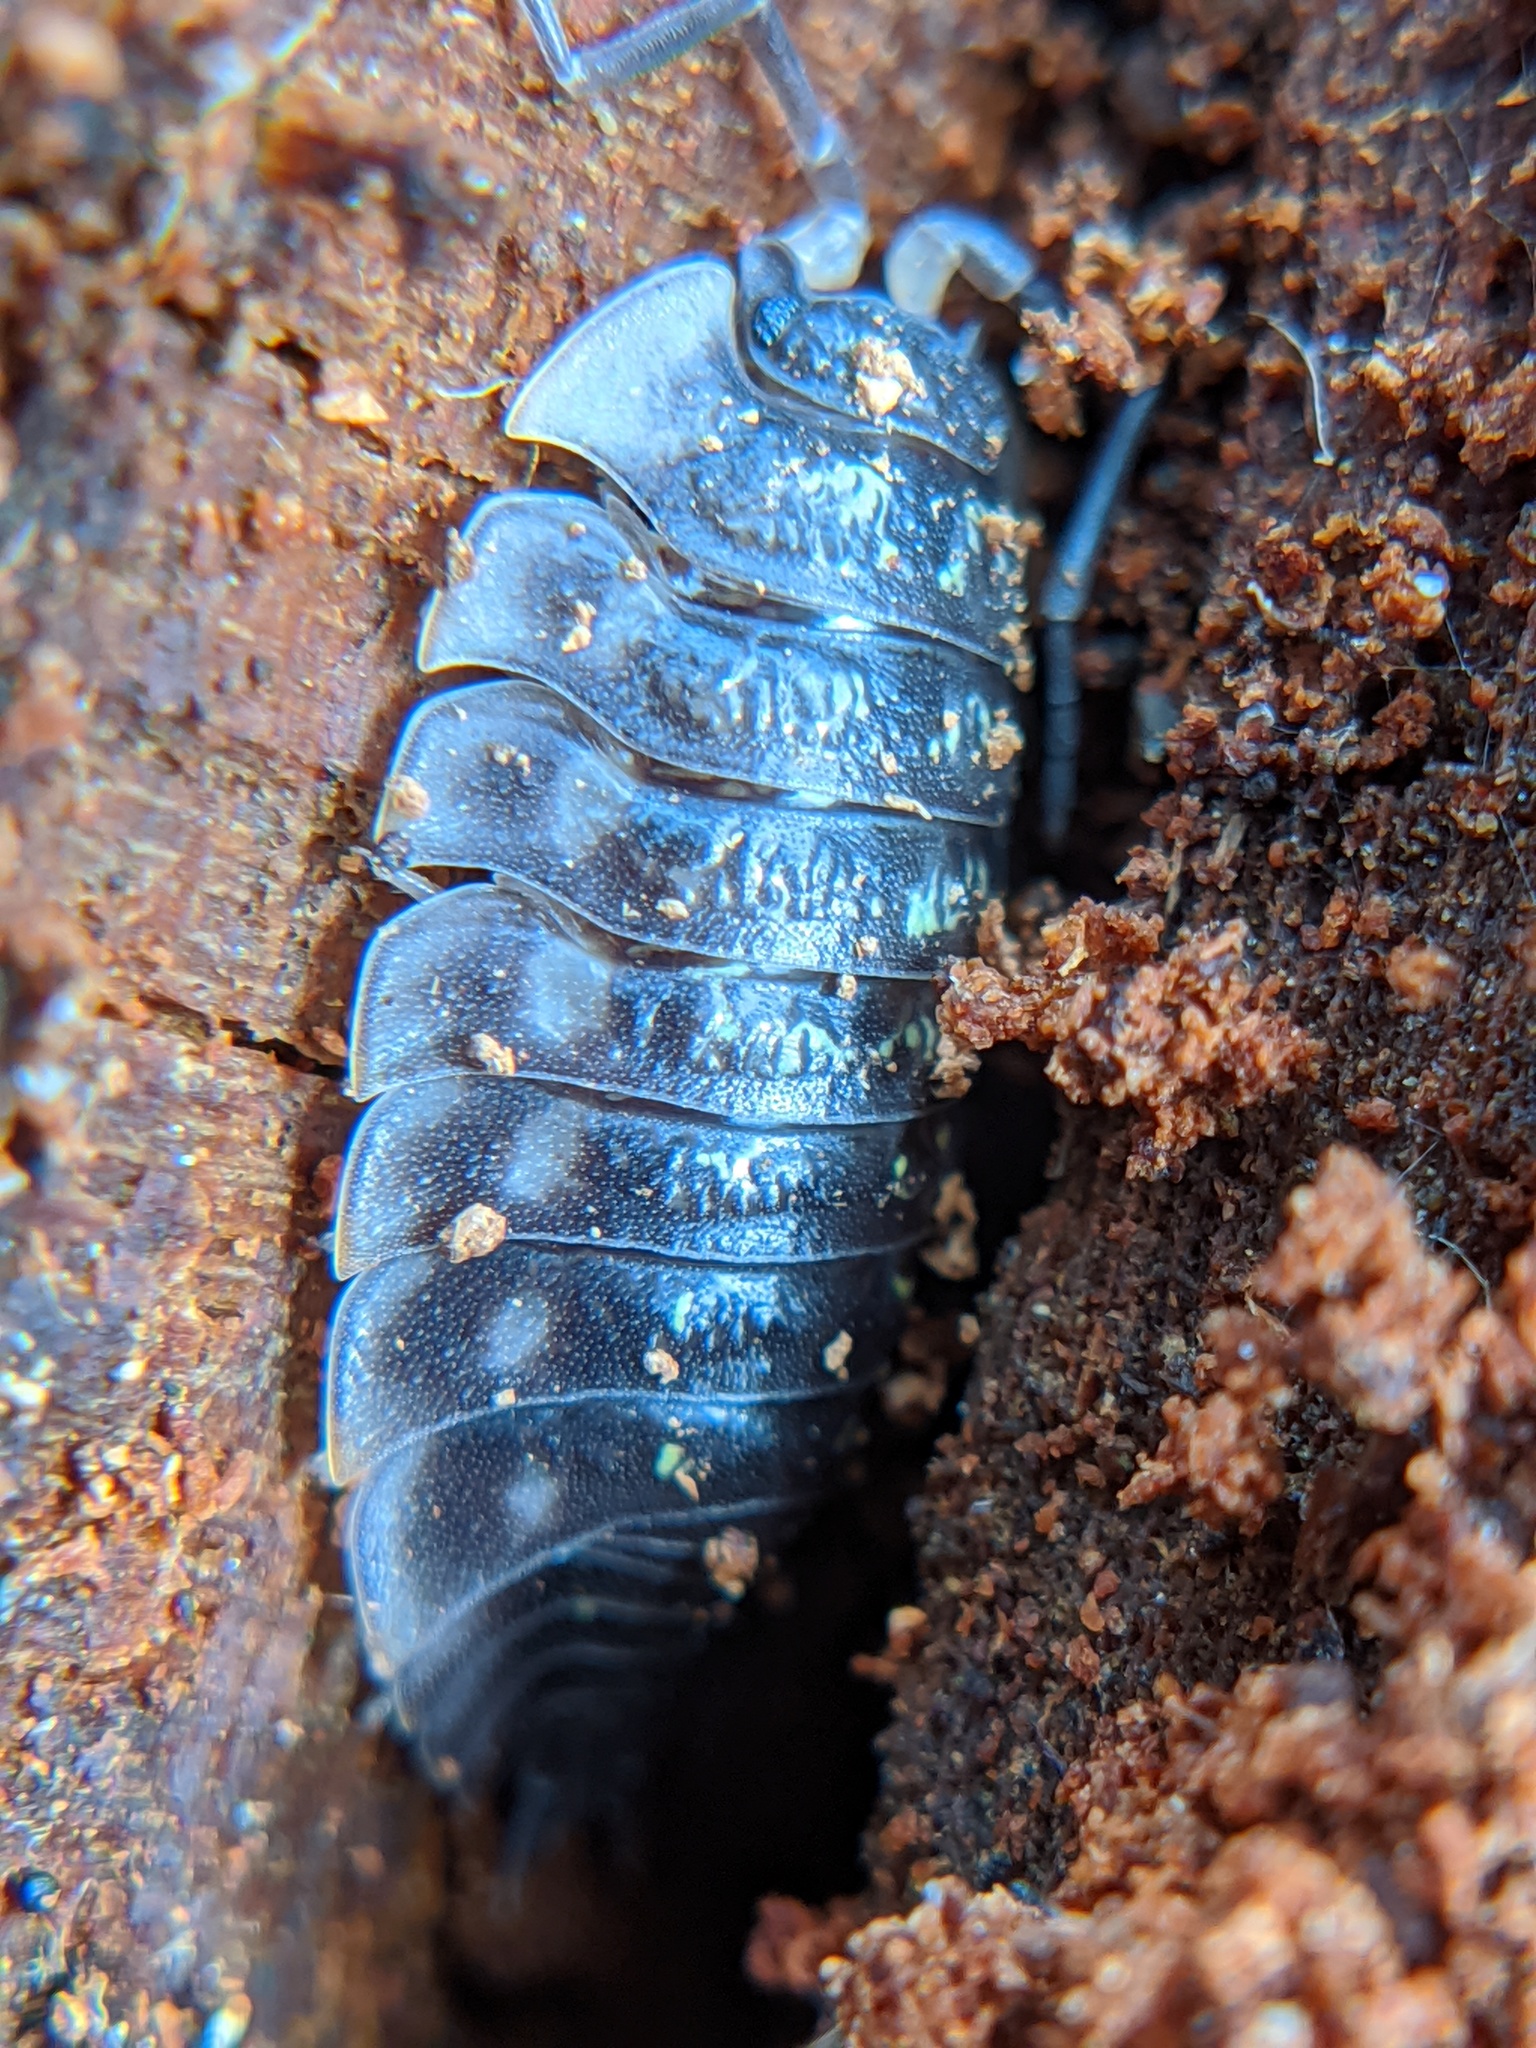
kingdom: Animalia
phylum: Arthropoda
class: Malacostraca
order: Isopoda
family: Oniscidae
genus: Oniscus
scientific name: Oniscus asellus
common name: Common shiny woodlouse
